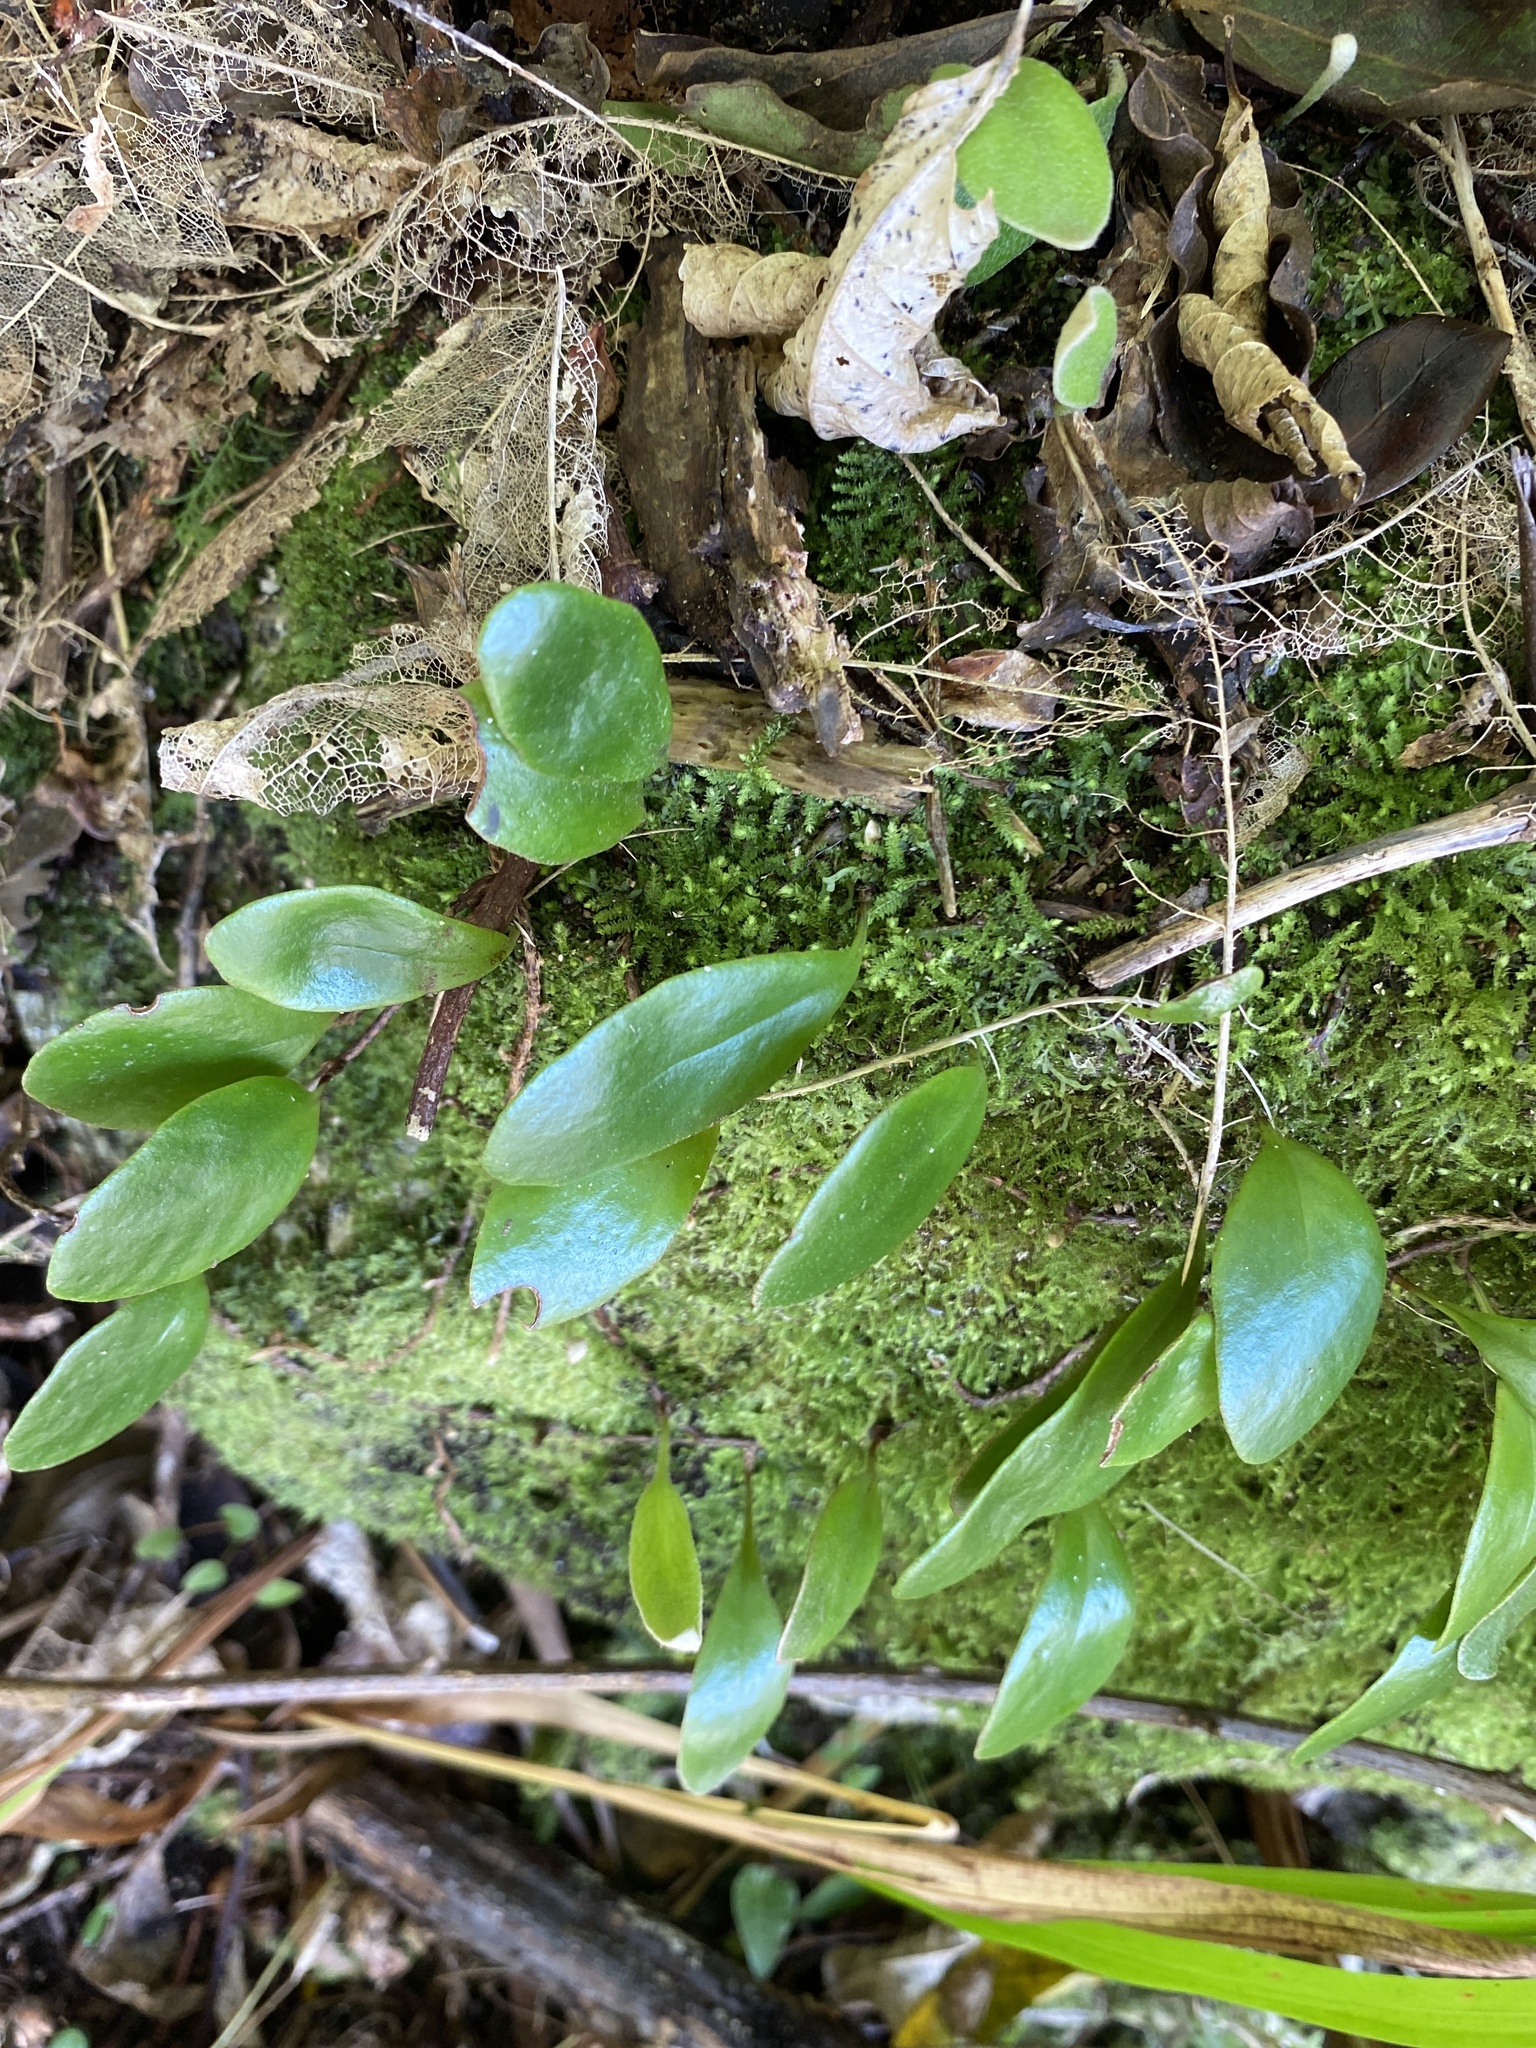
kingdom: Plantae
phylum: Tracheophyta
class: Polypodiopsida
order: Polypodiales
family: Polypodiaceae
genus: Pyrrosia
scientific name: Pyrrosia eleagnifolia
